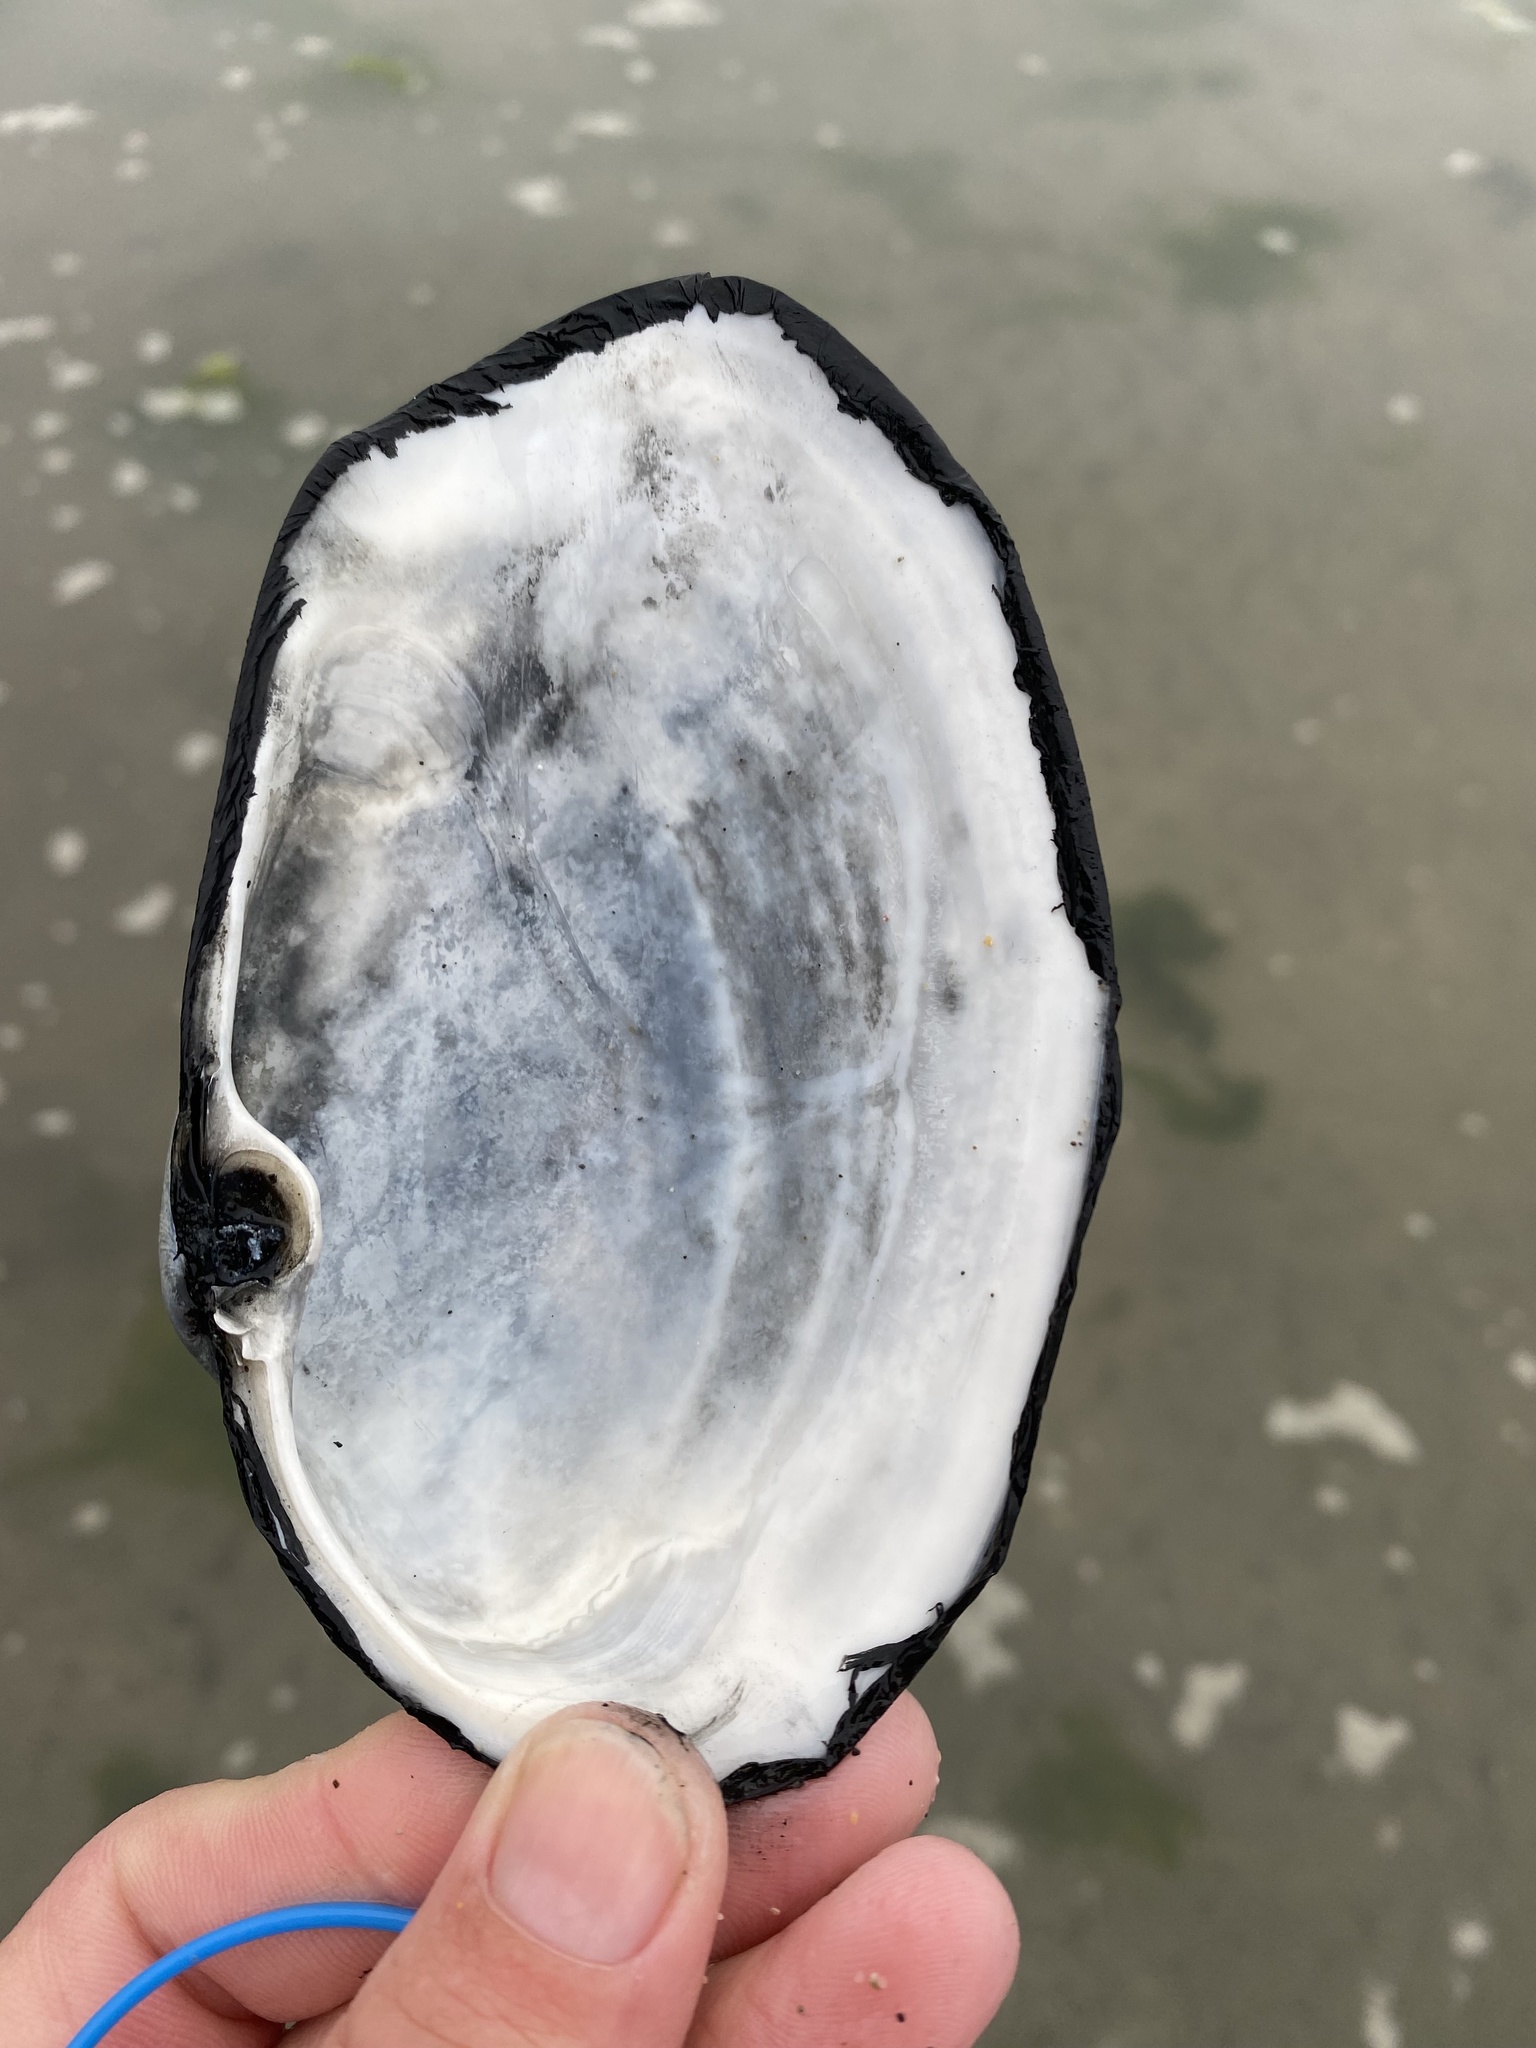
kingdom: Animalia
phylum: Mollusca
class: Bivalvia
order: Venerida
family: Mactridae
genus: Tresus
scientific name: Tresus nuttallii
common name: Pacific gaper clam
